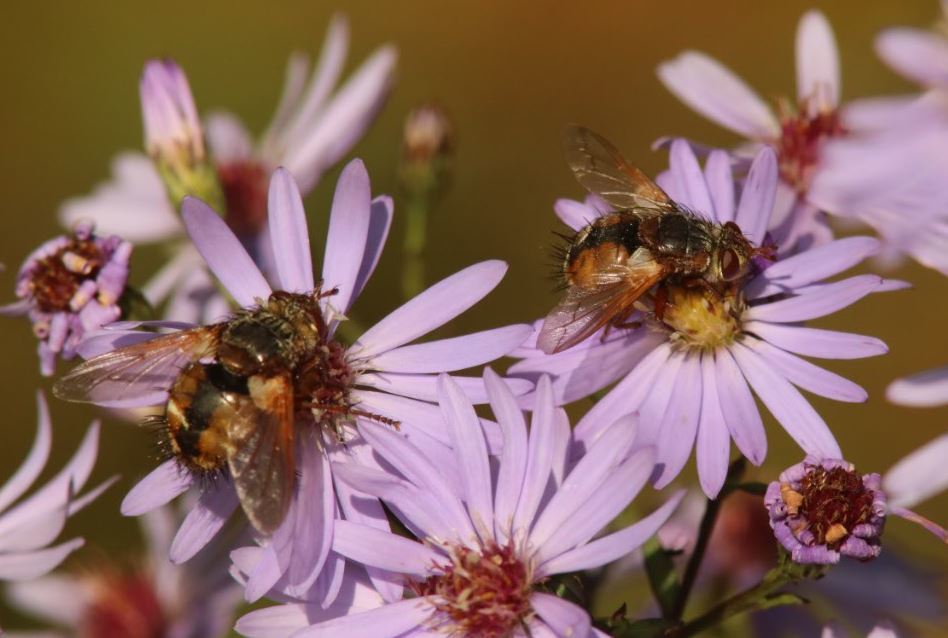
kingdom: Animalia
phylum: Arthropoda
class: Insecta
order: Diptera
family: Tachinidae
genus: Tachina
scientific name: Tachina fera
